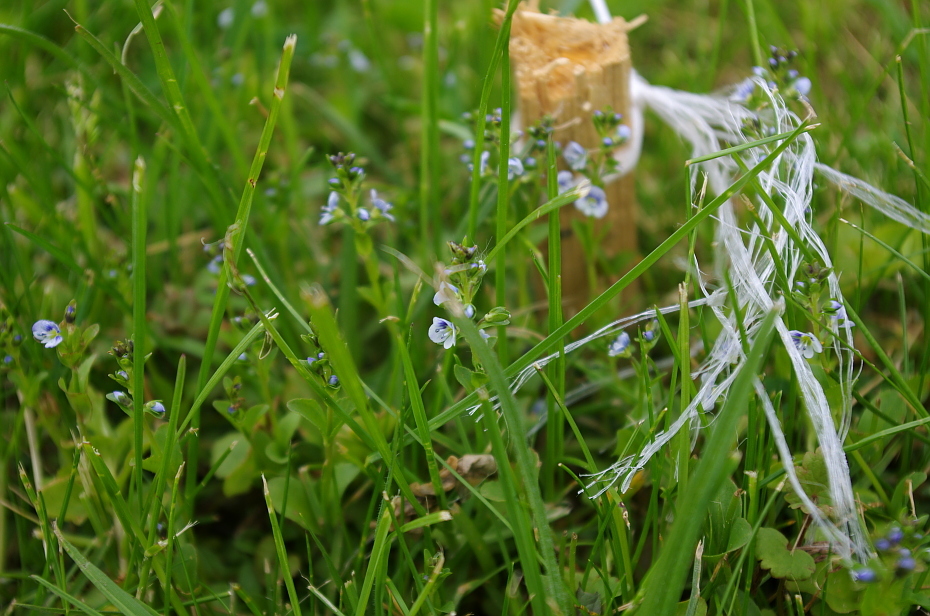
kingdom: Plantae
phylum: Tracheophyta
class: Magnoliopsida
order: Lamiales
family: Plantaginaceae
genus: Veronica
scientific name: Veronica serpyllifolia
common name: Thyme-leaved speedwell
